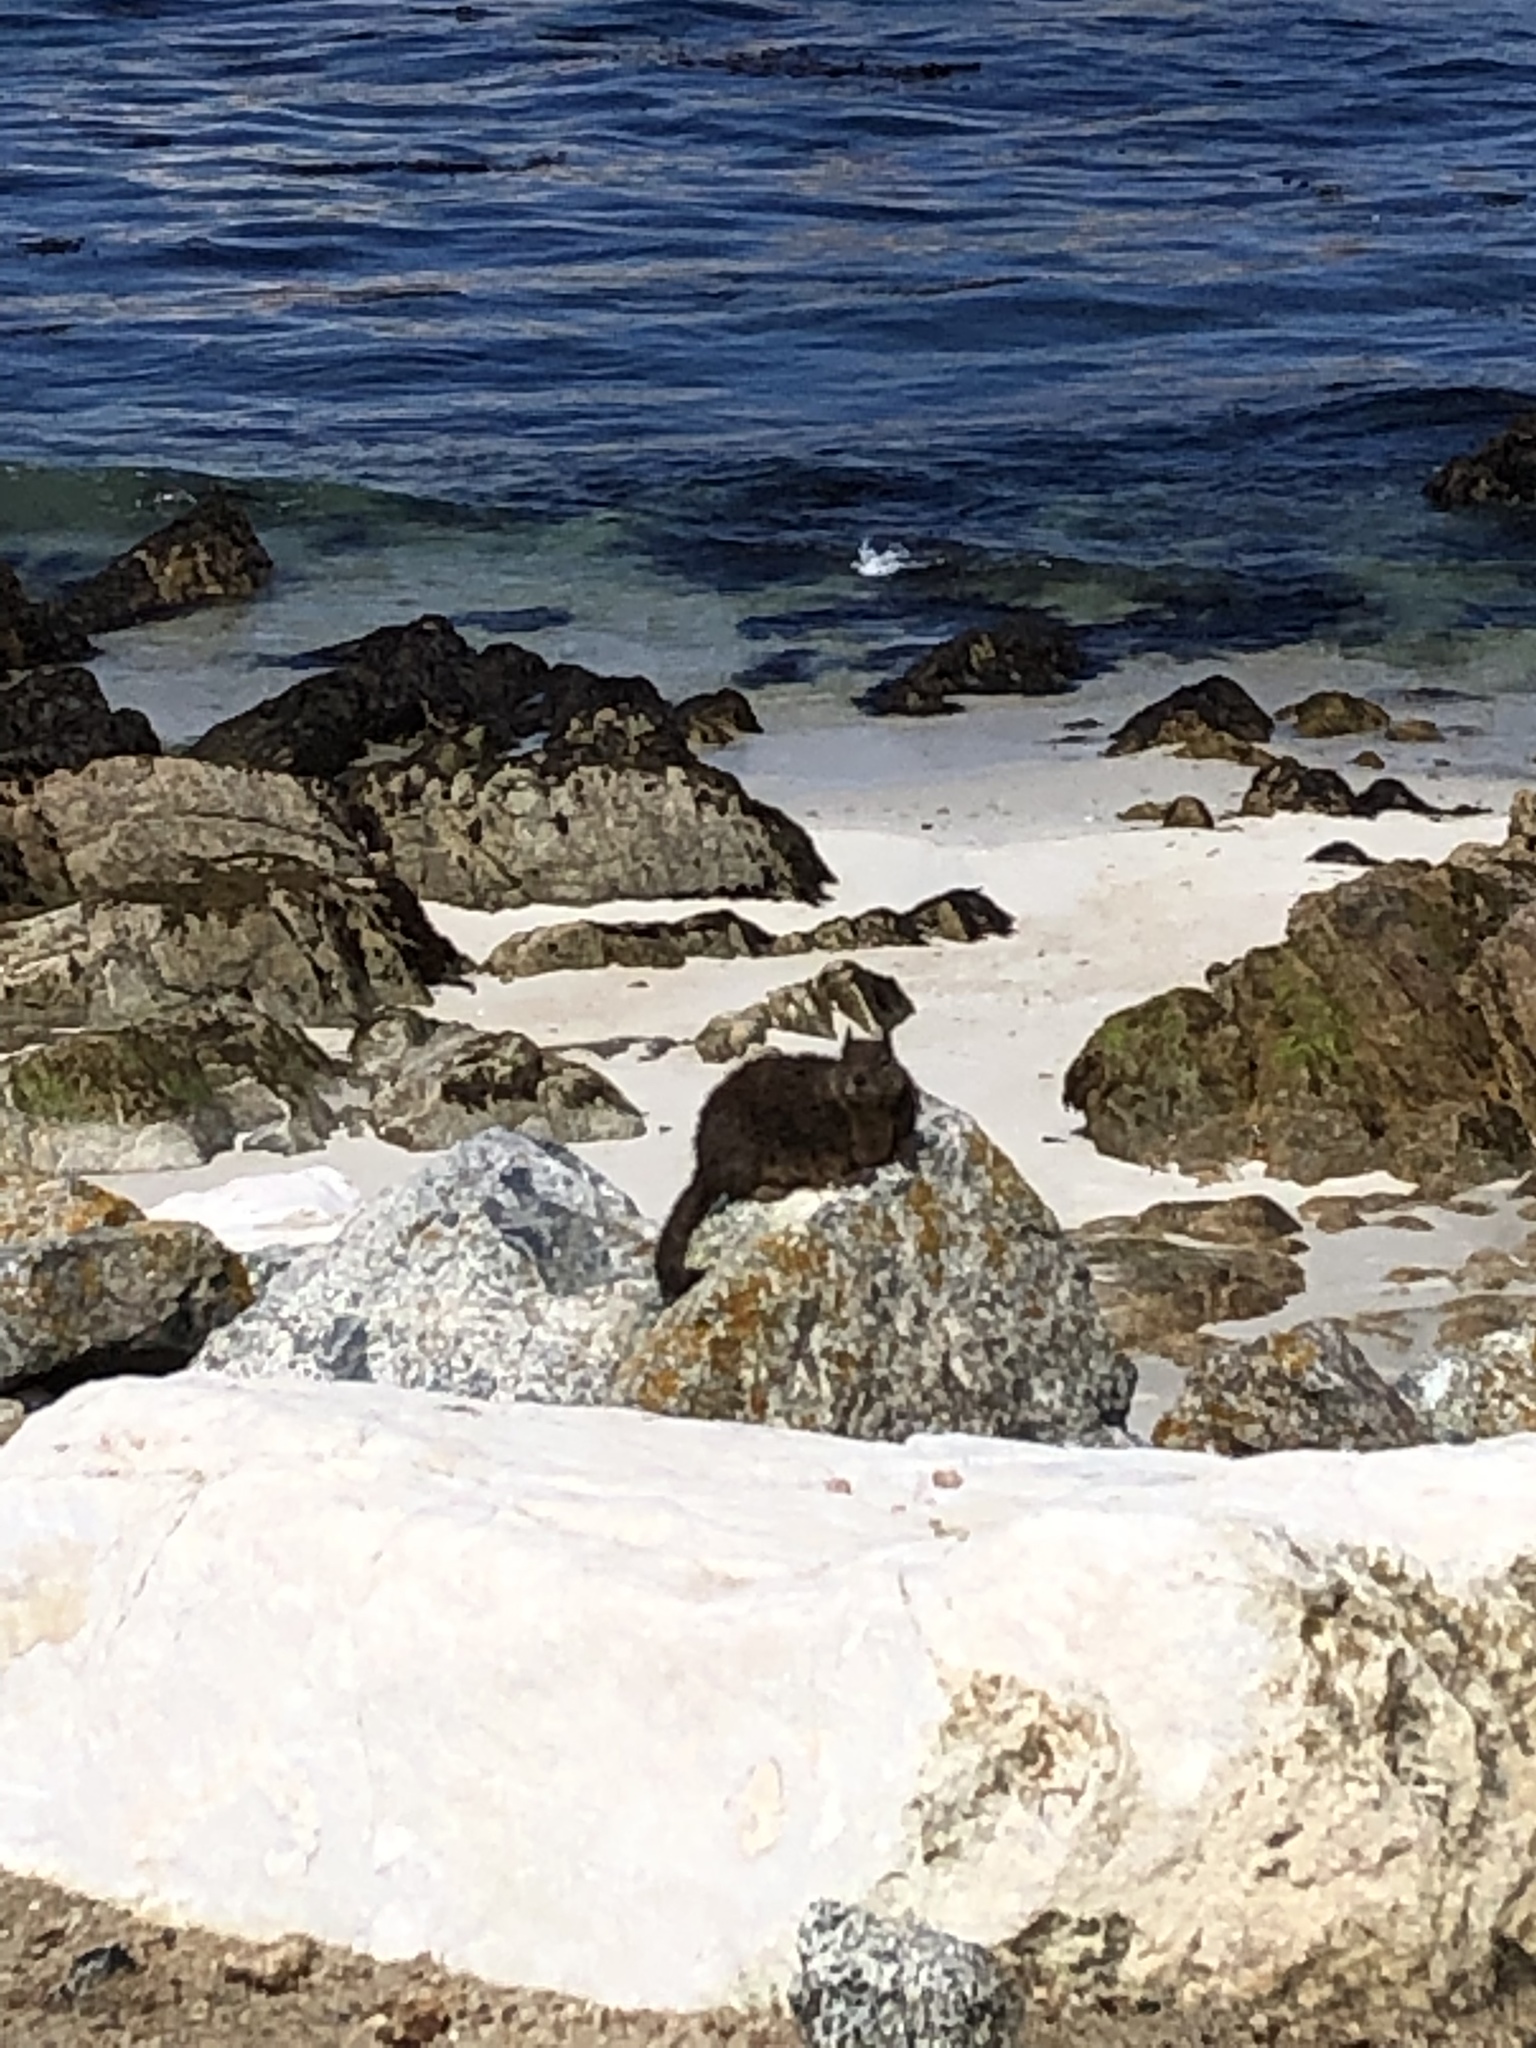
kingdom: Animalia
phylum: Chordata
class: Mammalia
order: Rodentia
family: Sciuridae
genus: Otospermophilus
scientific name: Otospermophilus beecheyi
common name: California ground squirrel
